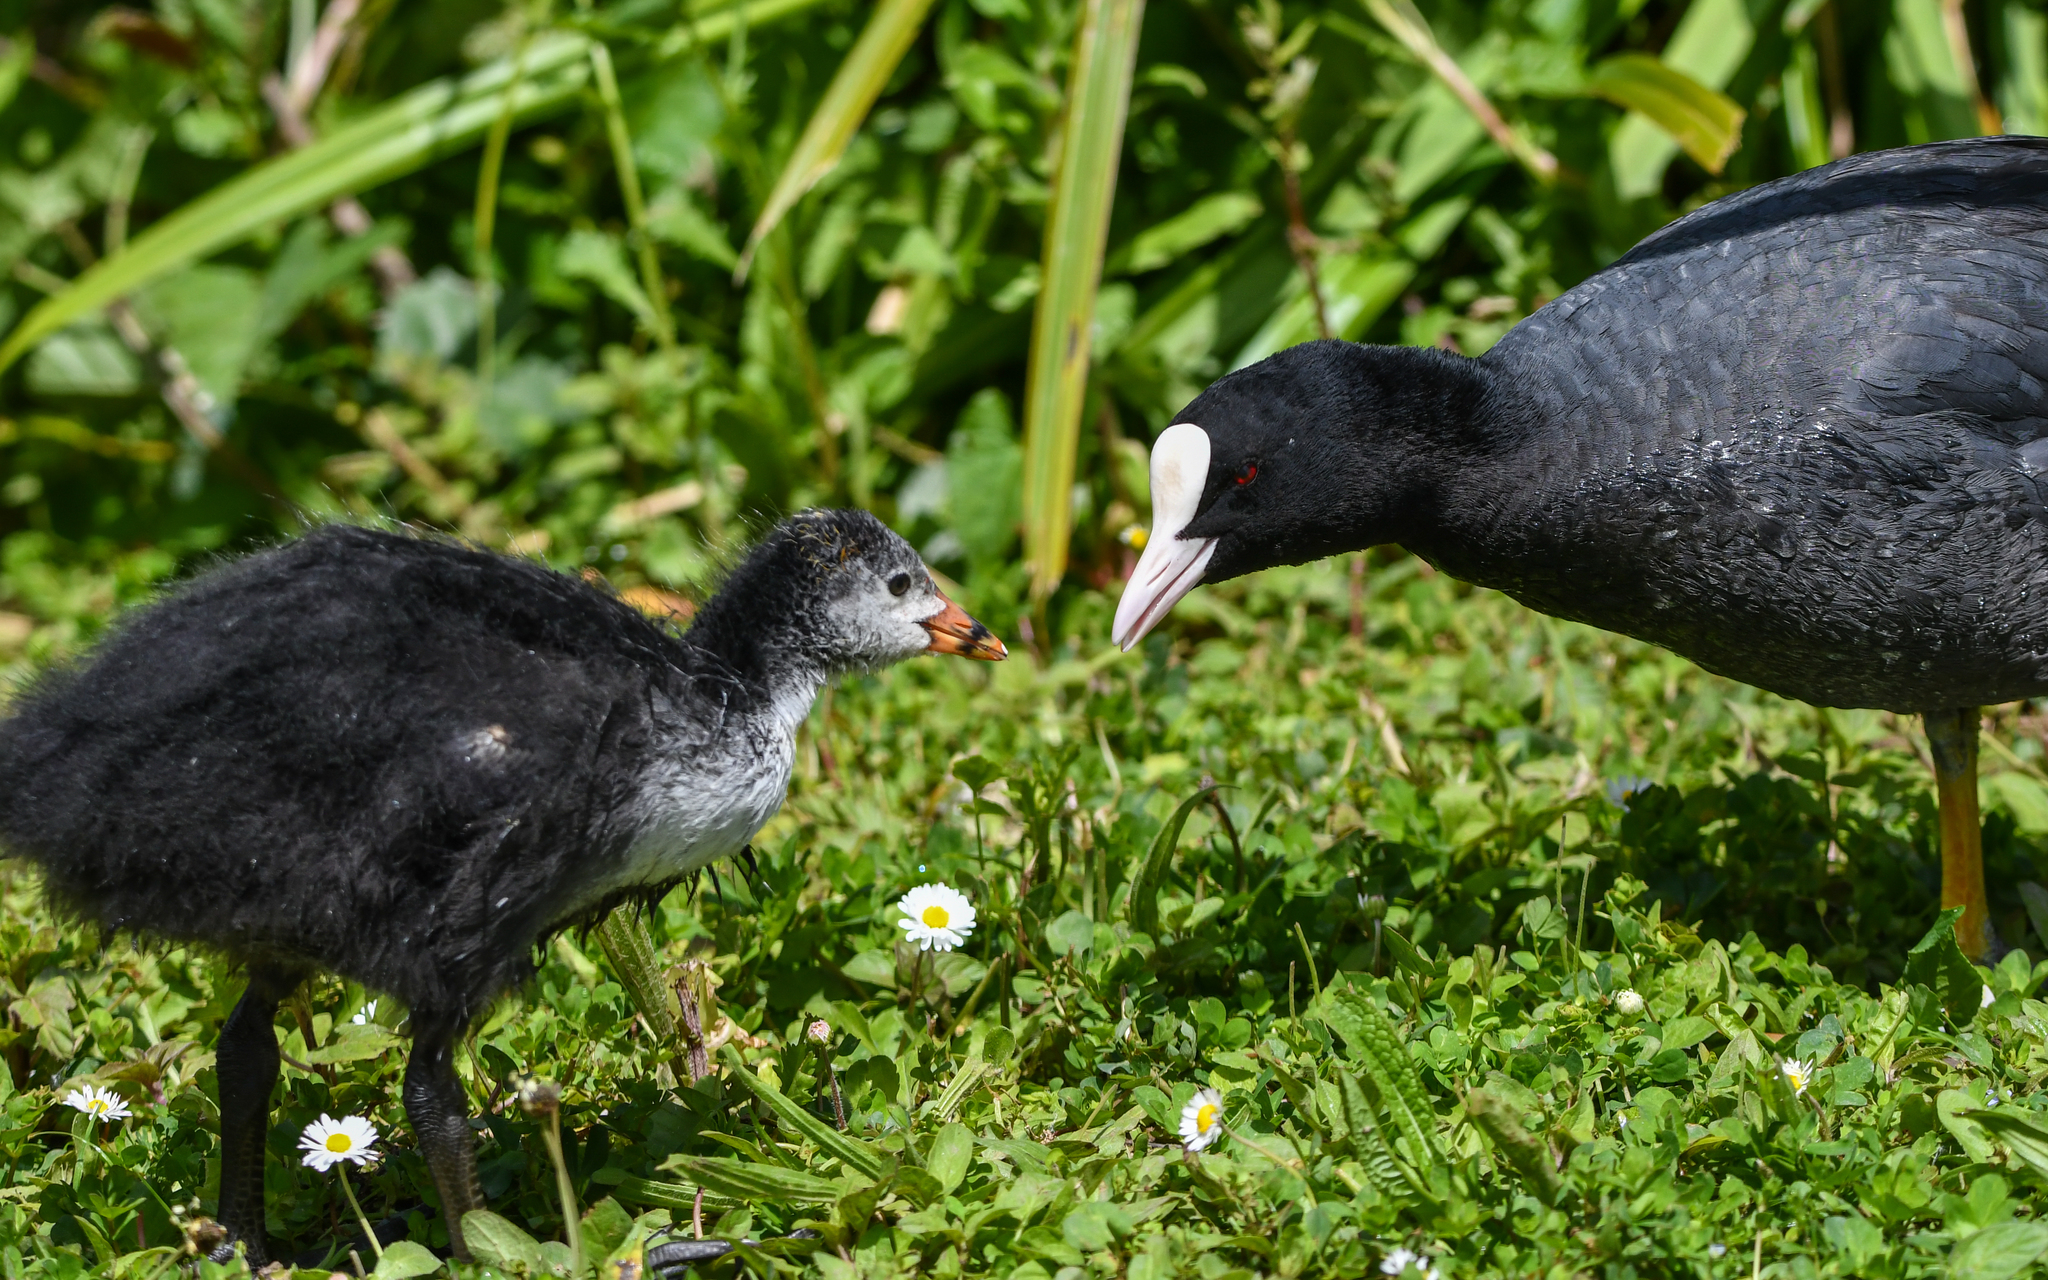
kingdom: Animalia
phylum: Chordata
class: Aves
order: Gruiformes
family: Rallidae
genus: Fulica
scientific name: Fulica atra
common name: Eurasian coot
